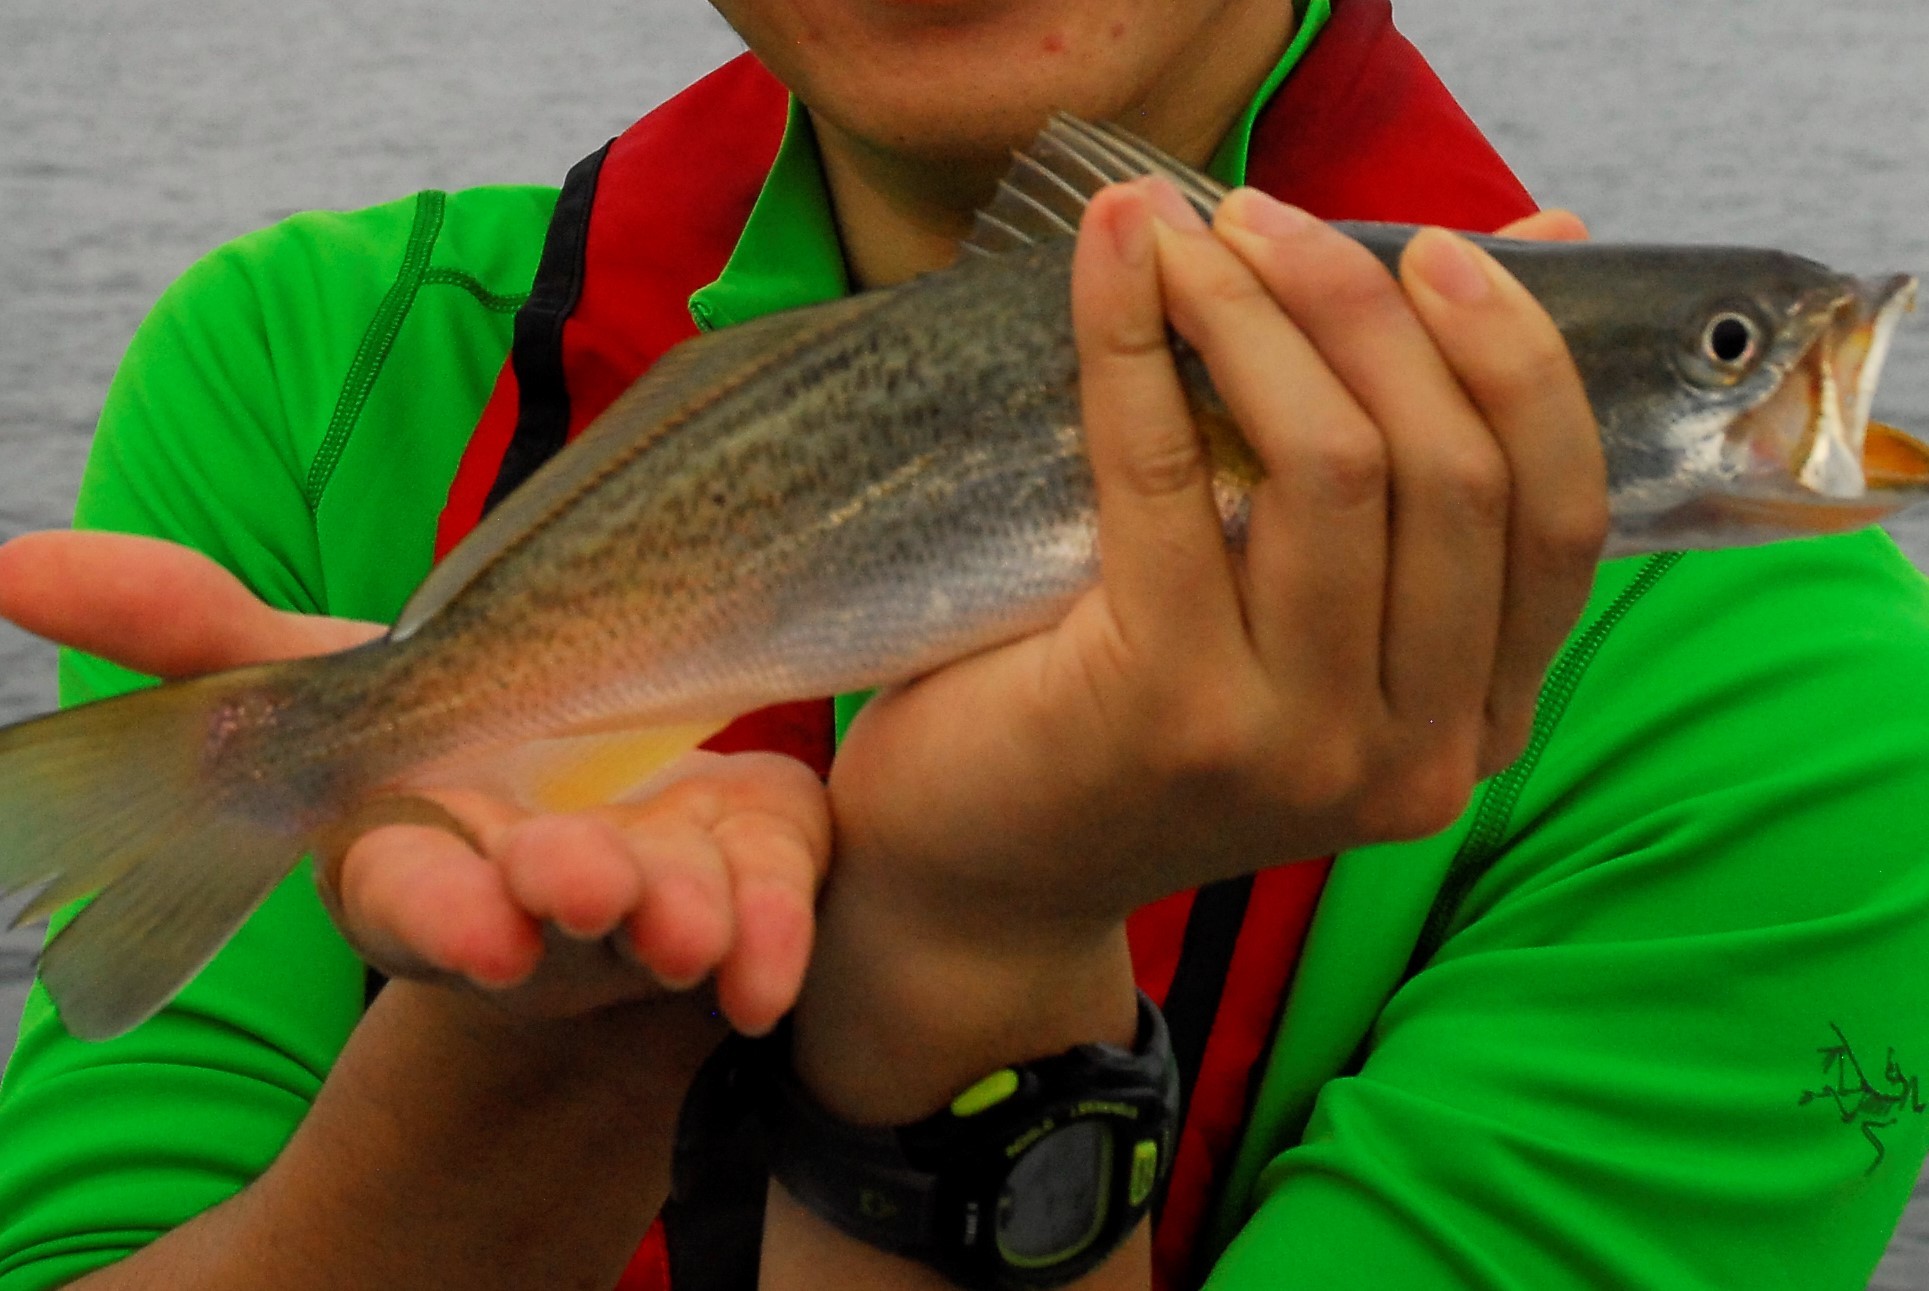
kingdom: Animalia
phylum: Chordata
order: Perciformes
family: Sciaenidae
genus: Cynoscion
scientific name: Cynoscion regalis
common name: Squeteague
